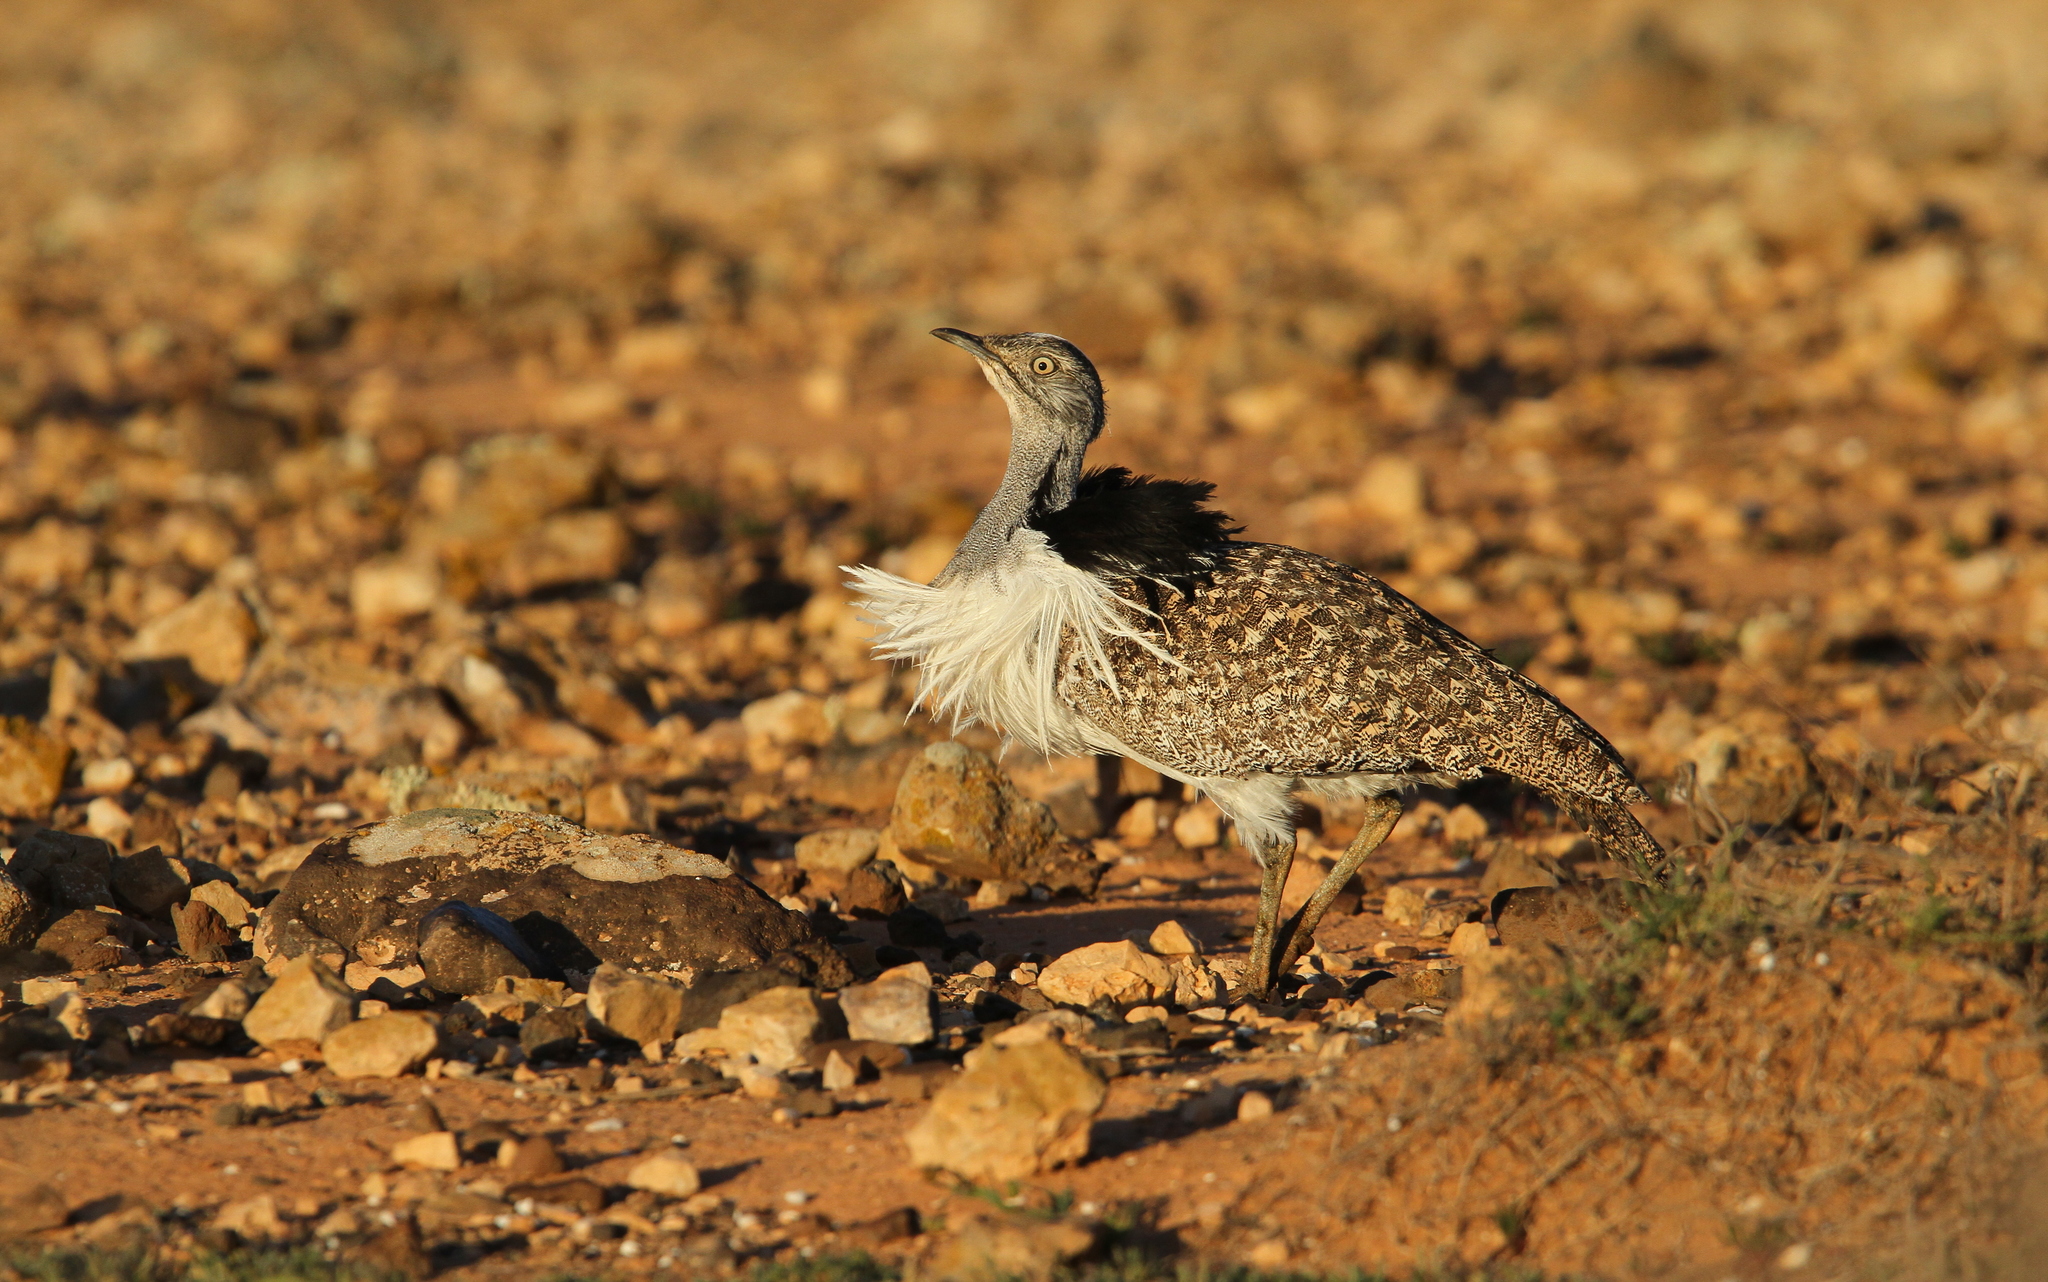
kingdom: Animalia
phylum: Chordata
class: Aves
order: Otidiformes
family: Otididae
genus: Chlamydotis
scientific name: Chlamydotis undulata
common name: Houbara bustard
